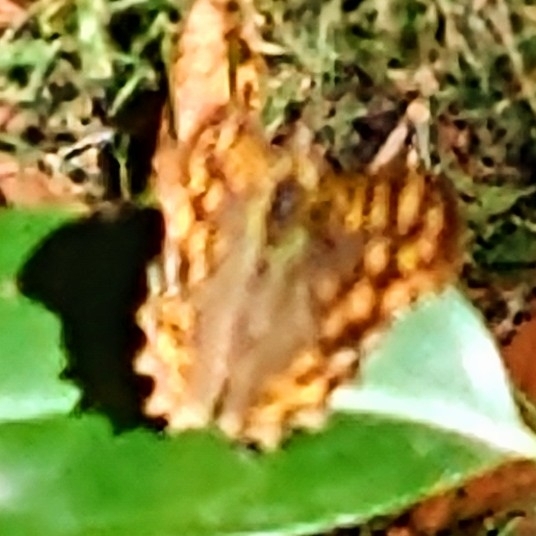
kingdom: Animalia
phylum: Arthropoda
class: Insecta
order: Lepidoptera
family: Nymphalidae
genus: Pararge
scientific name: Pararge aegeria
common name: Speckled wood
